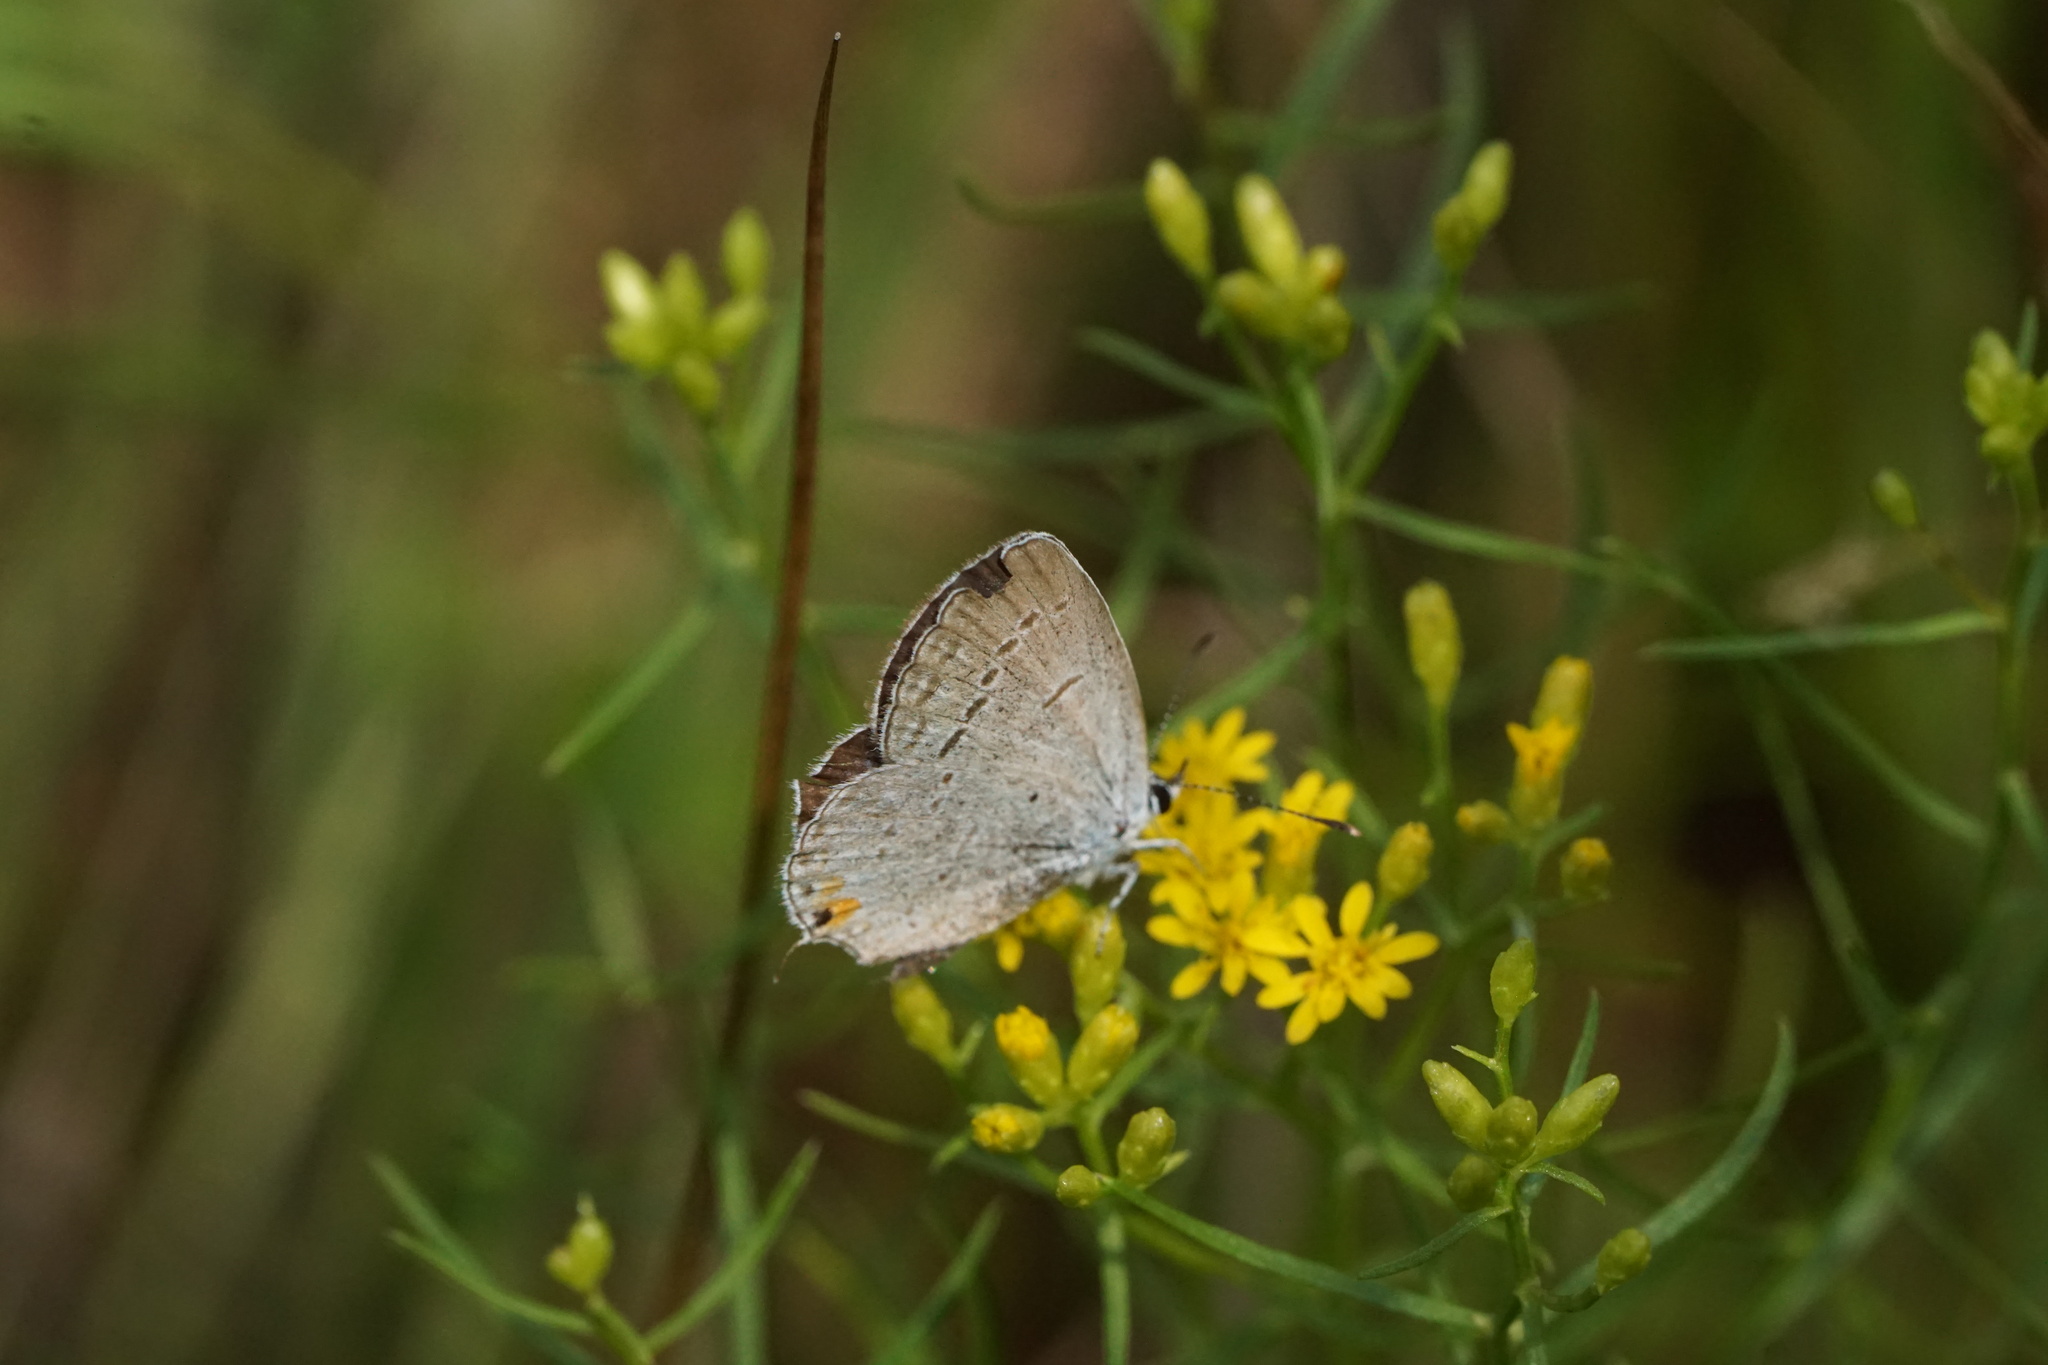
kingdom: Animalia
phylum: Arthropoda
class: Insecta
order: Lepidoptera
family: Lycaenidae
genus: Elkalyce
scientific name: Elkalyce comyntas
